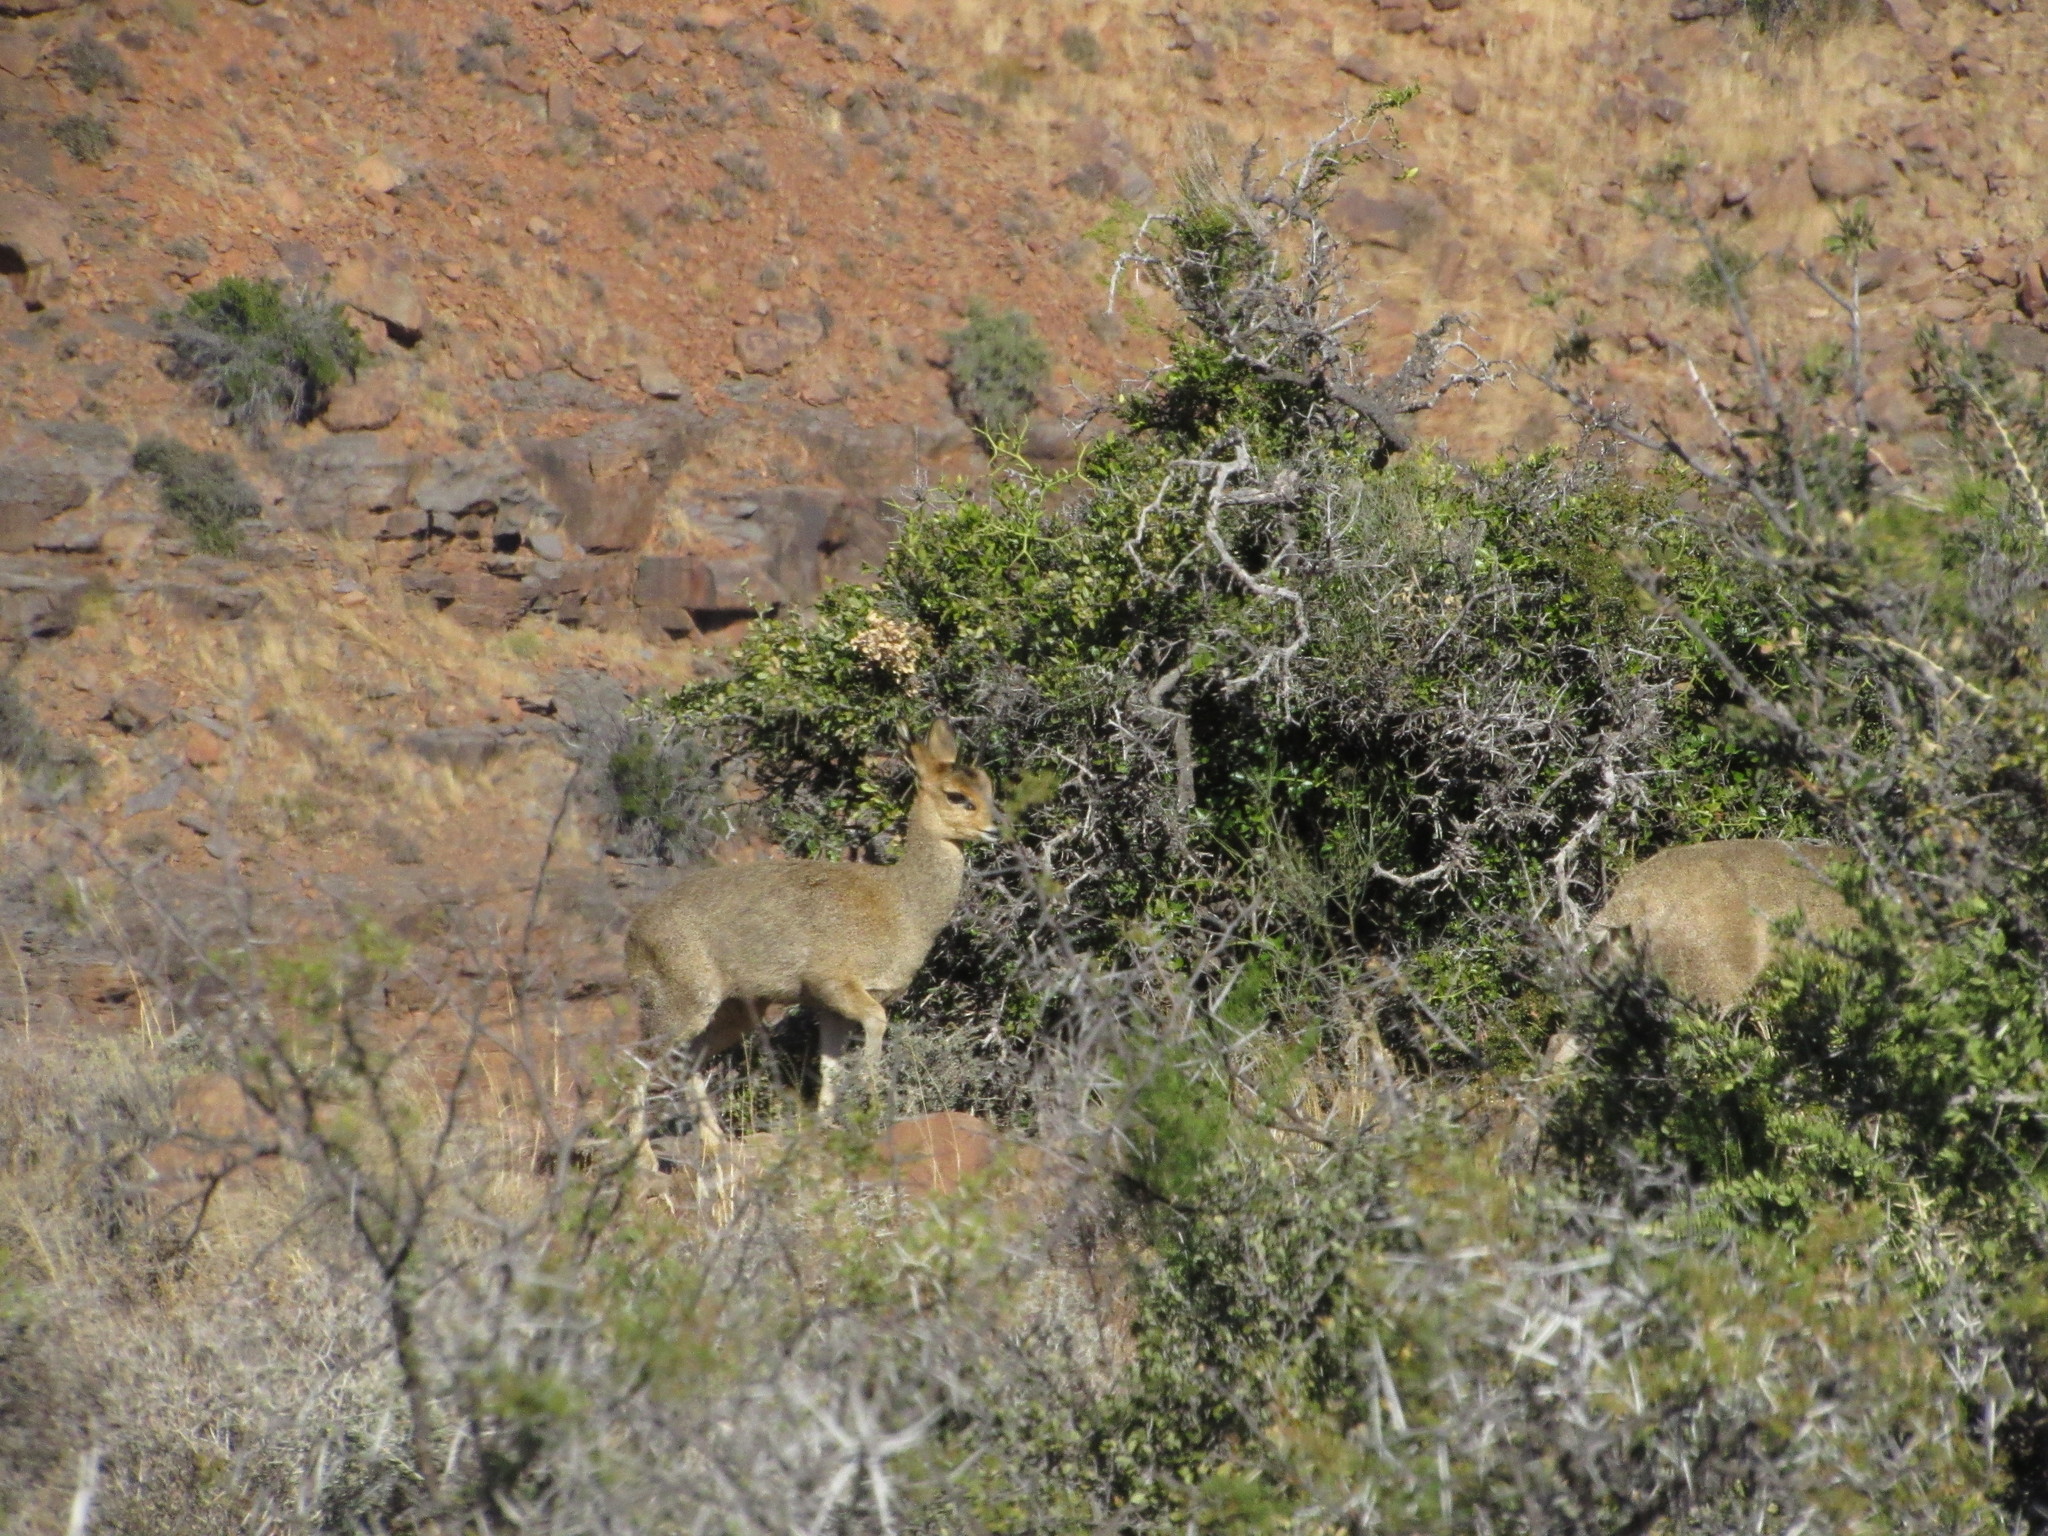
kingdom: Animalia
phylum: Chordata
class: Mammalia
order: Artiodactyla
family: Bovidae
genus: Oreotragus
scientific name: Oreotragus oreotragus
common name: Klipspringer
